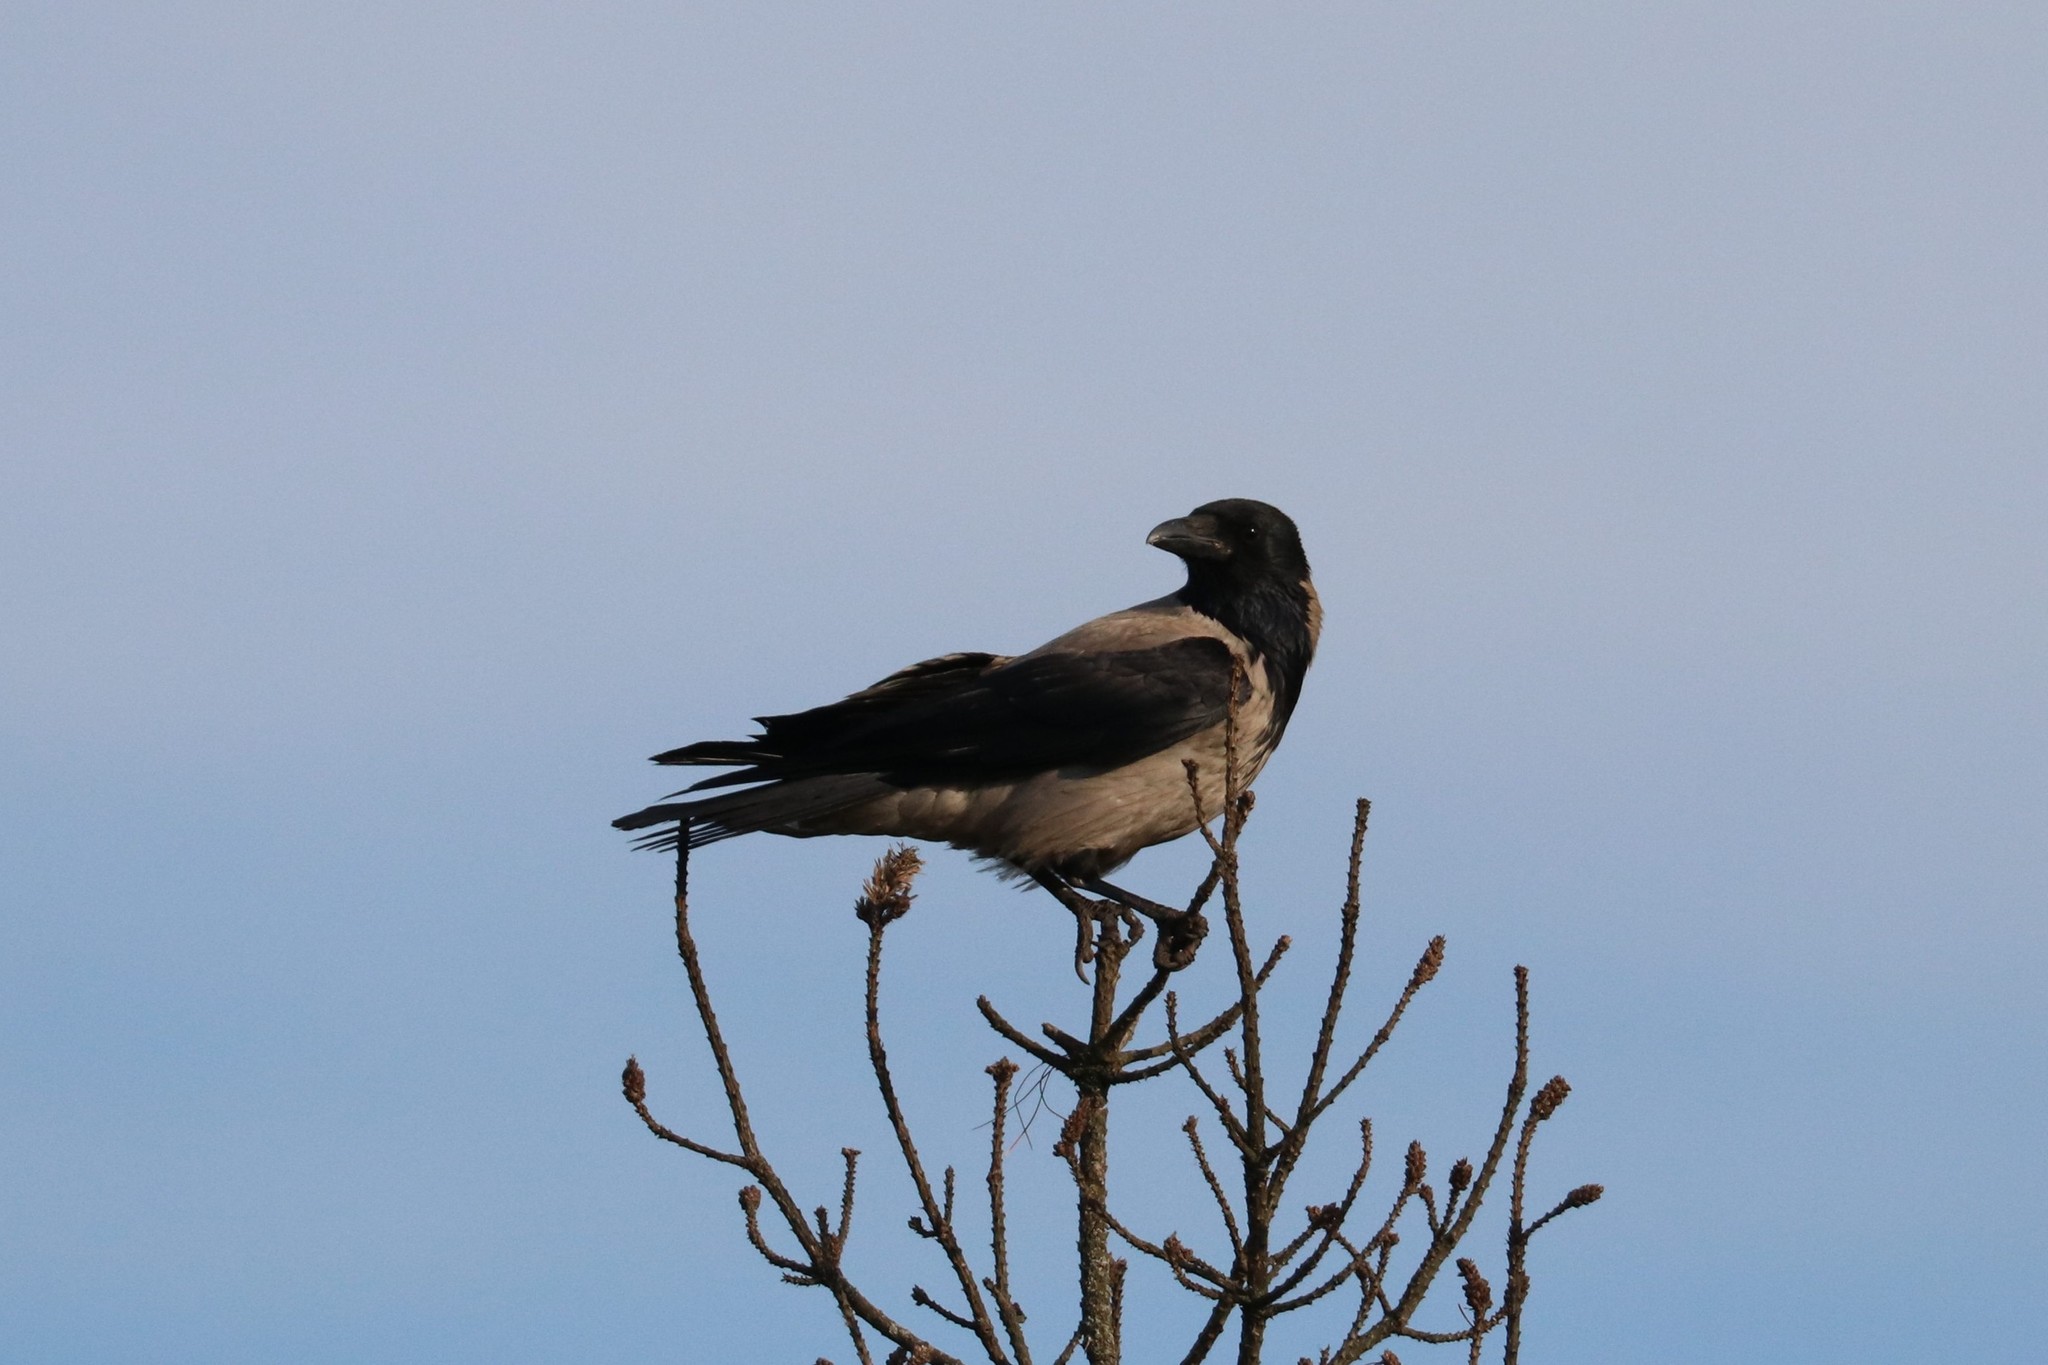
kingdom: Animalia
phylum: Chordata
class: Aves
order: Passeriformes
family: Corvidae
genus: Corvus
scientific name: Corvus cornix
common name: Hooded crow
